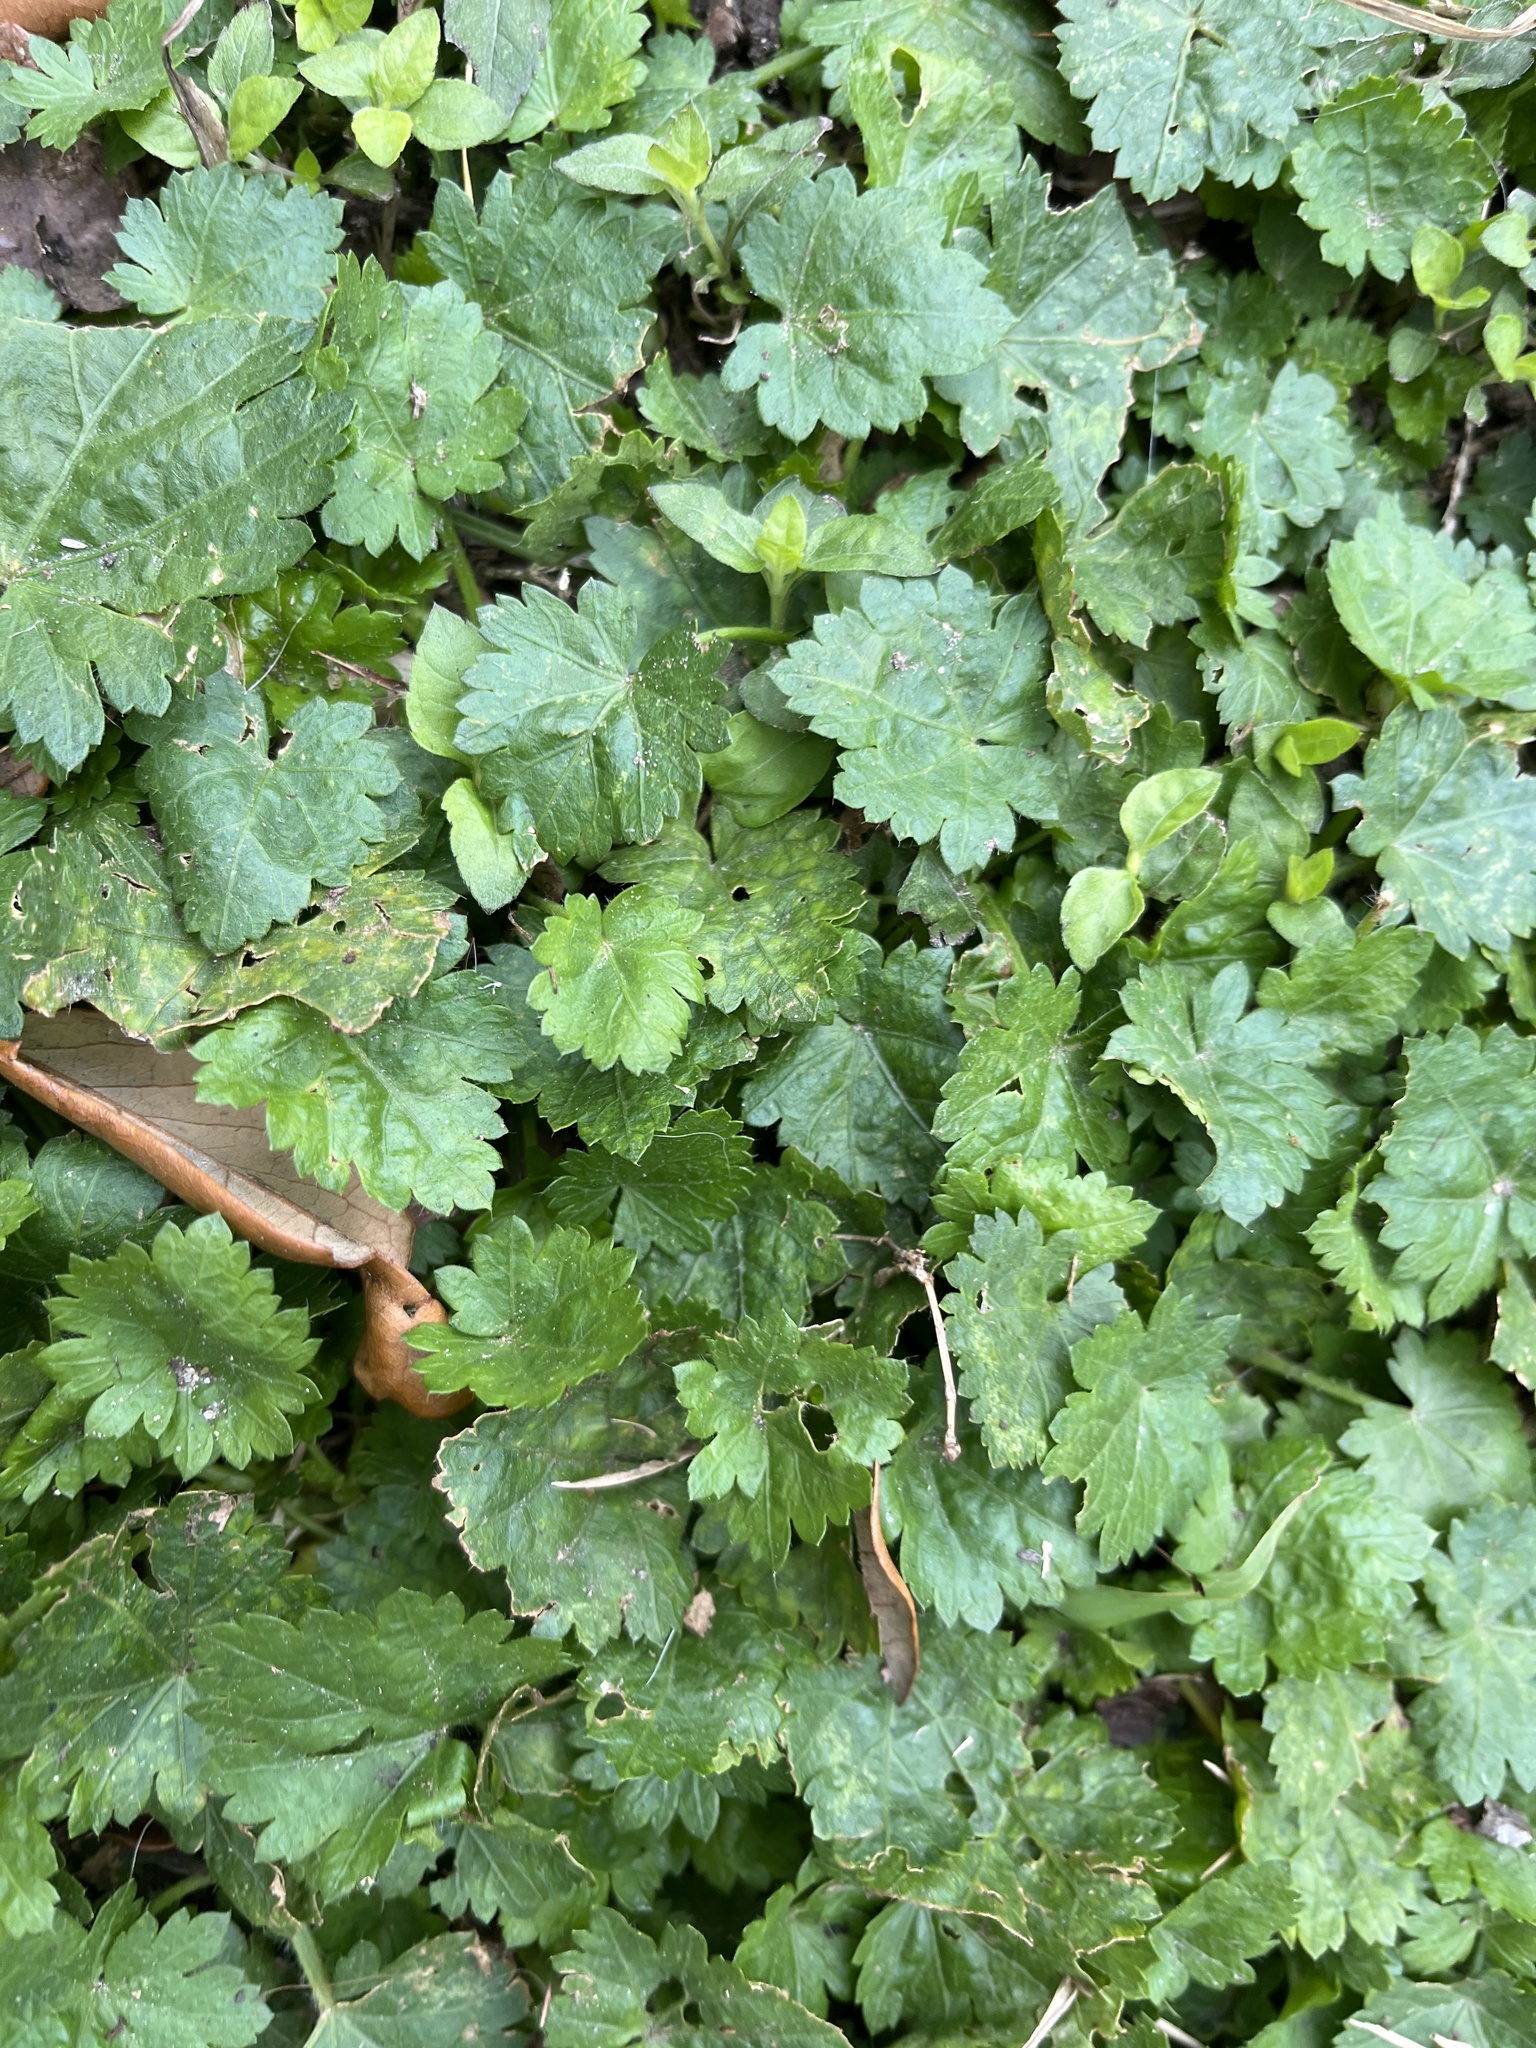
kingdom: Plantae
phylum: Tracheophyta
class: Magnoliopsida
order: Malvales
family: Malvaceae
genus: Modiola
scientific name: Modiola caroliniana
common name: Carolina bristlemallow
